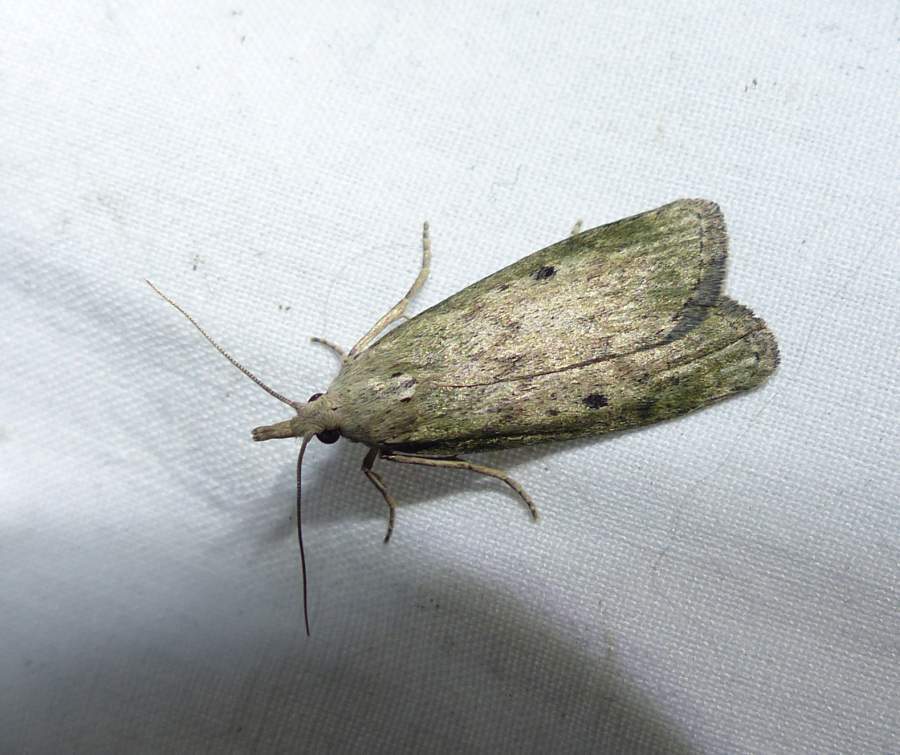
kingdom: Animalia
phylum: Arthropoda
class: Insecta
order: Lepidoptera
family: Pyralidae
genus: Aphomia
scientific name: Aphomia sociella
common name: Bee moth
